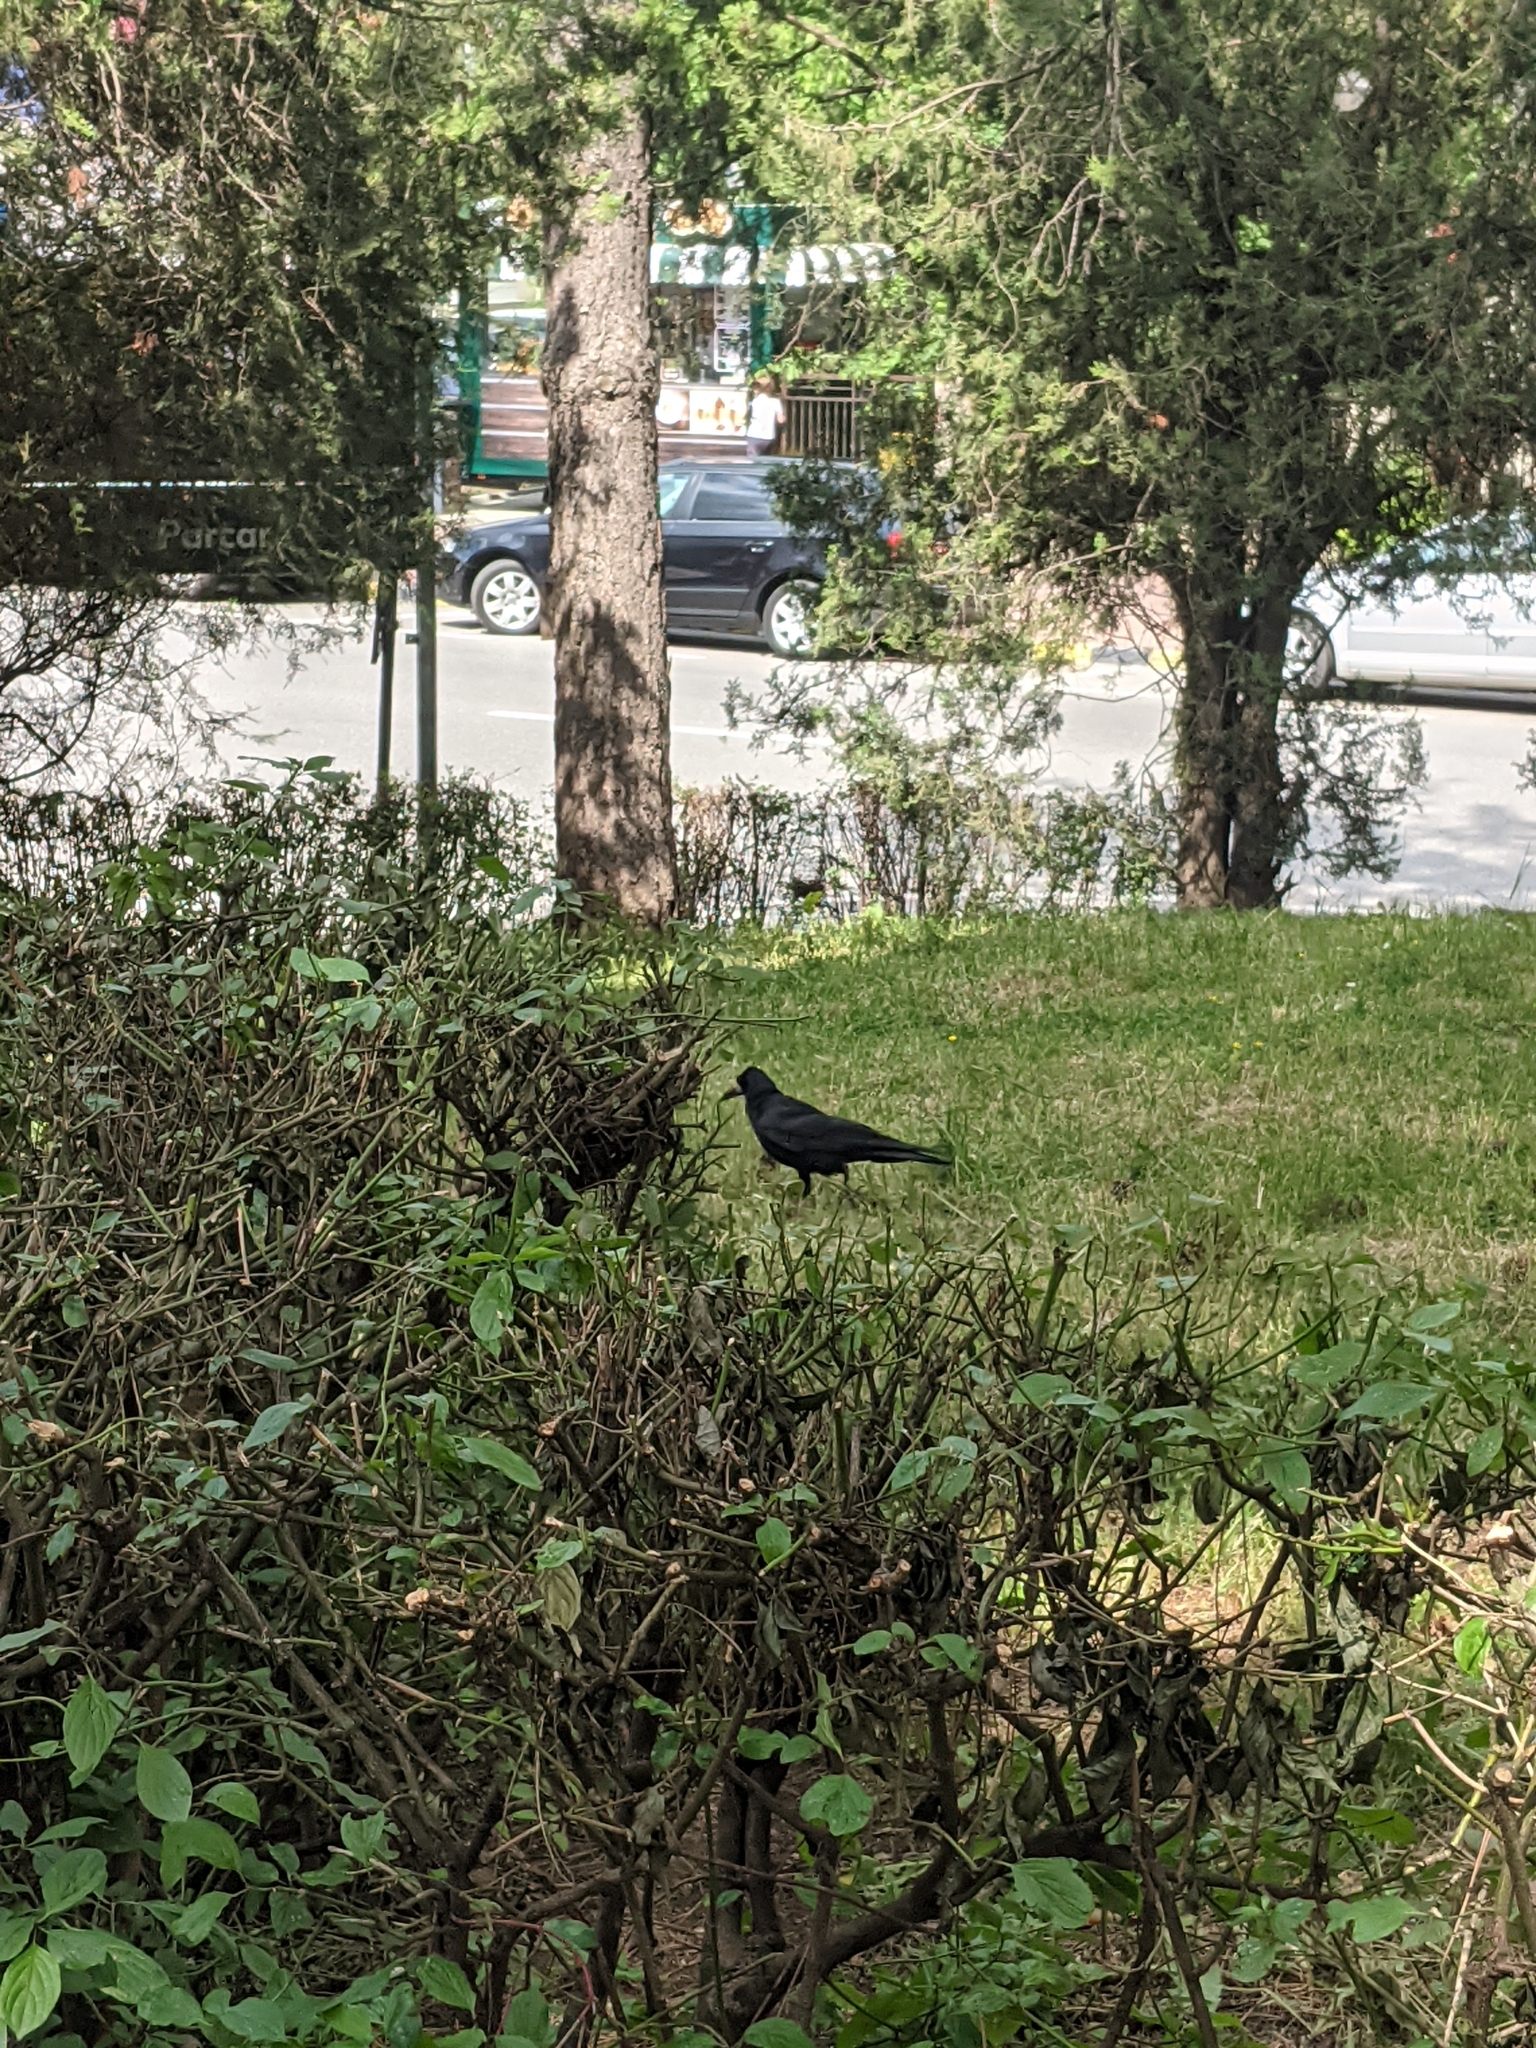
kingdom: Animalia
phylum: Chordata
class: Aves
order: Passeriformes
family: Corvidae
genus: Corvus
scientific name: Corvus frugilegus
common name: Rook
